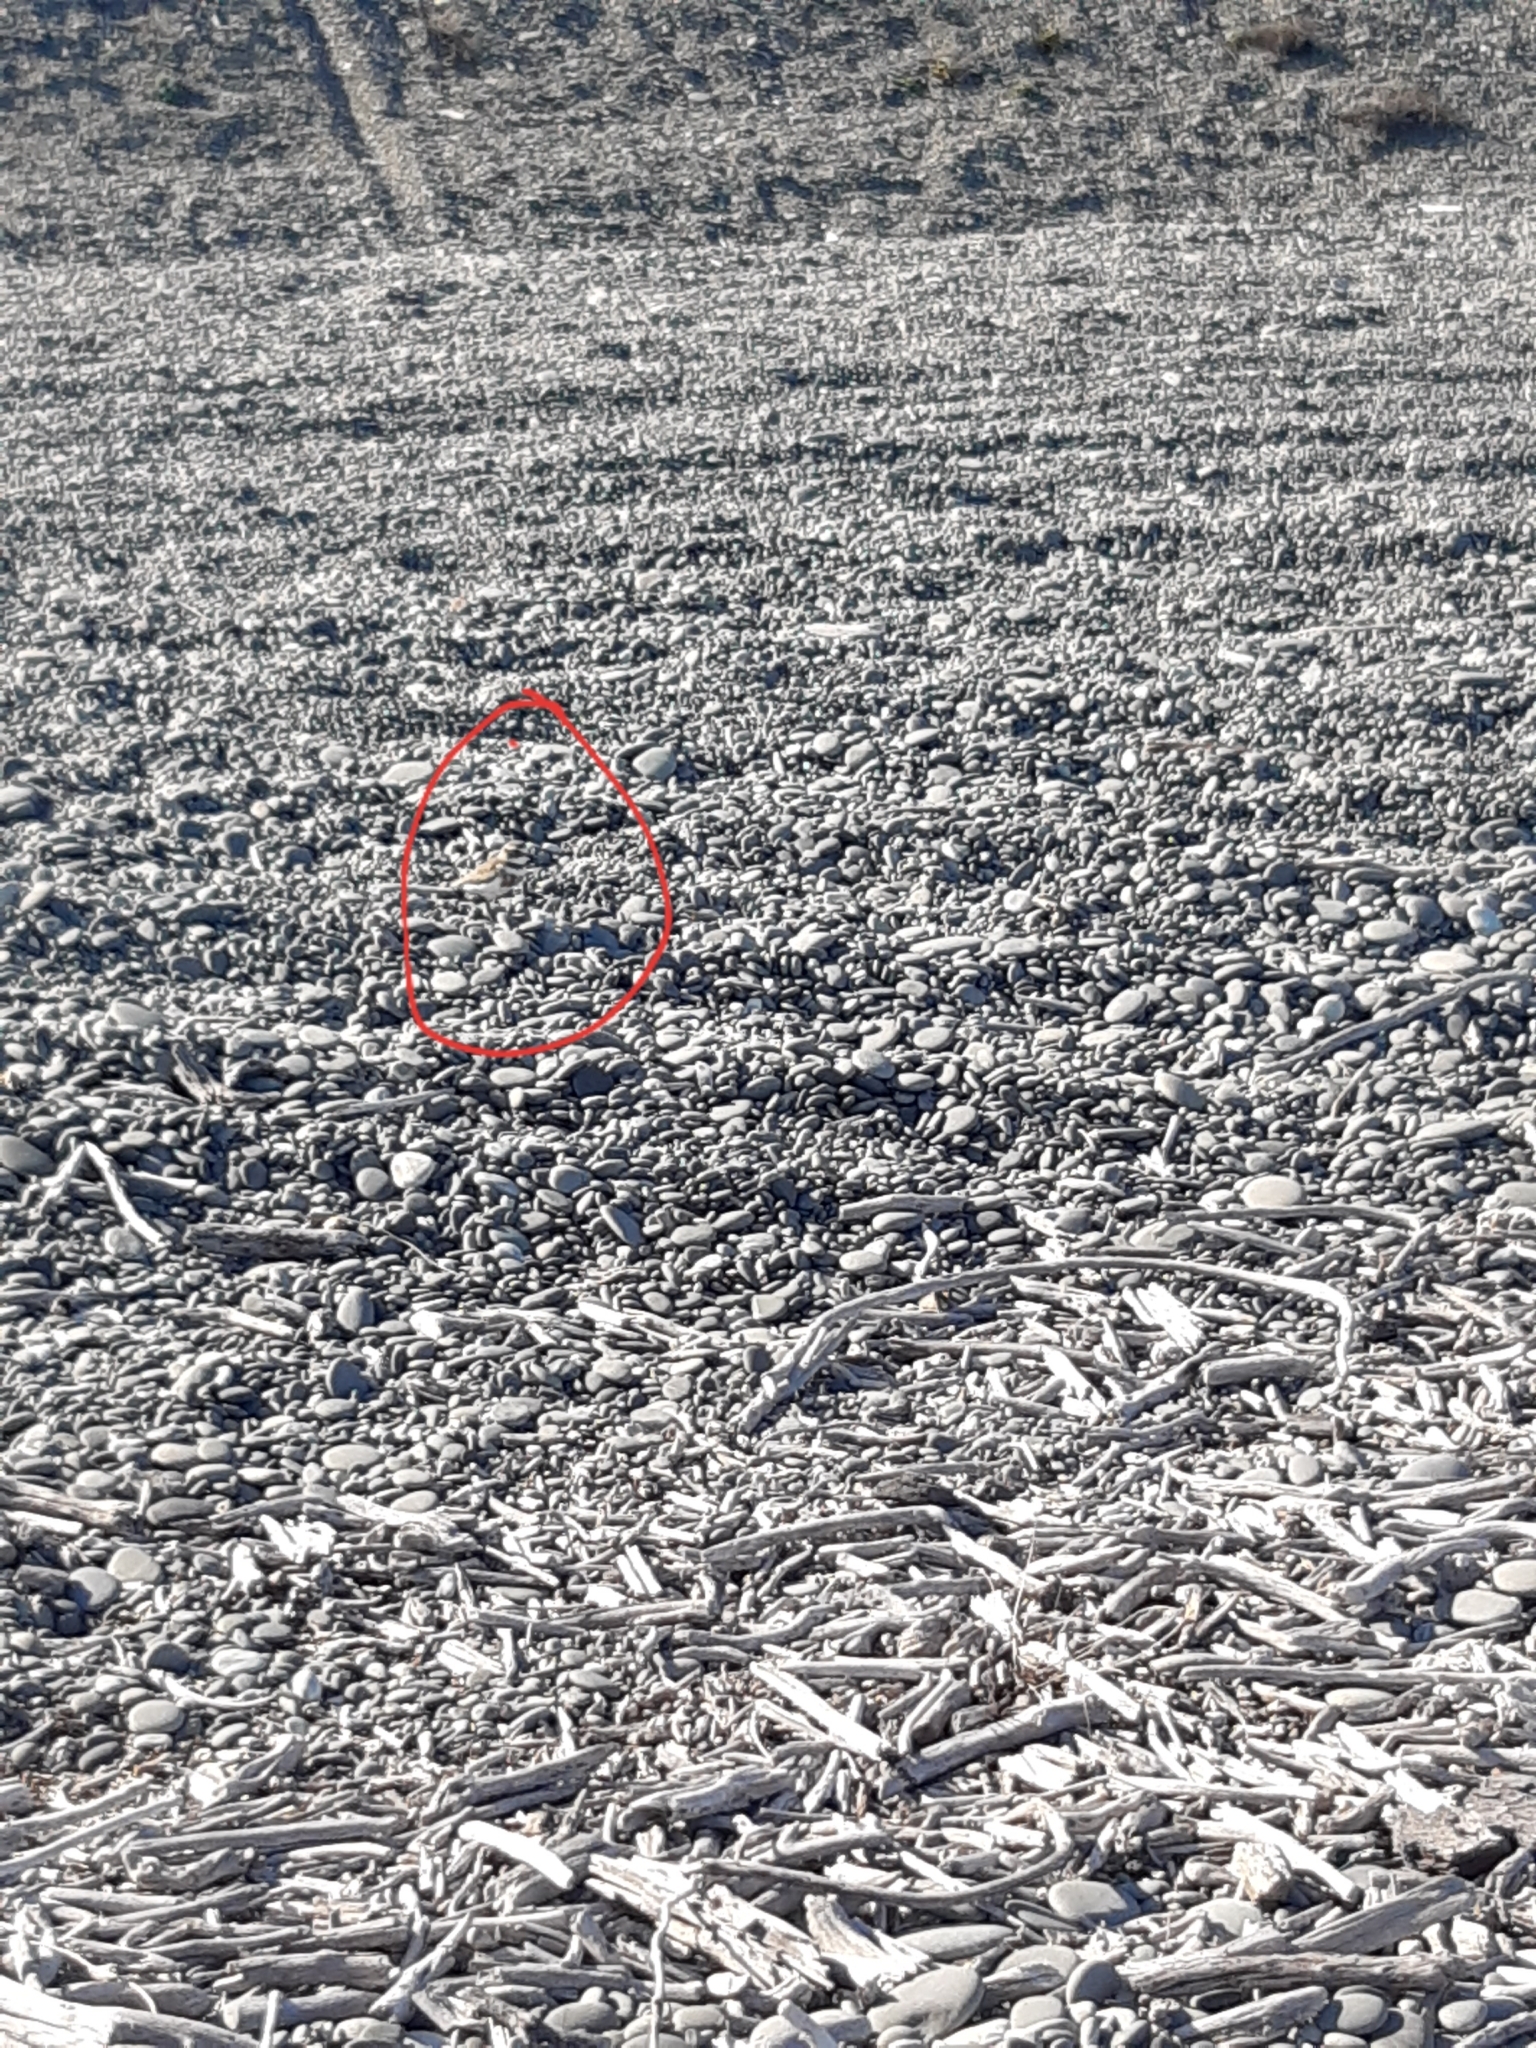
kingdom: Animalia
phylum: Chordata
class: Aves
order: Charadriiformes
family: Charadriidae
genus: Anarhynchus
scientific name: Anarhynchus
